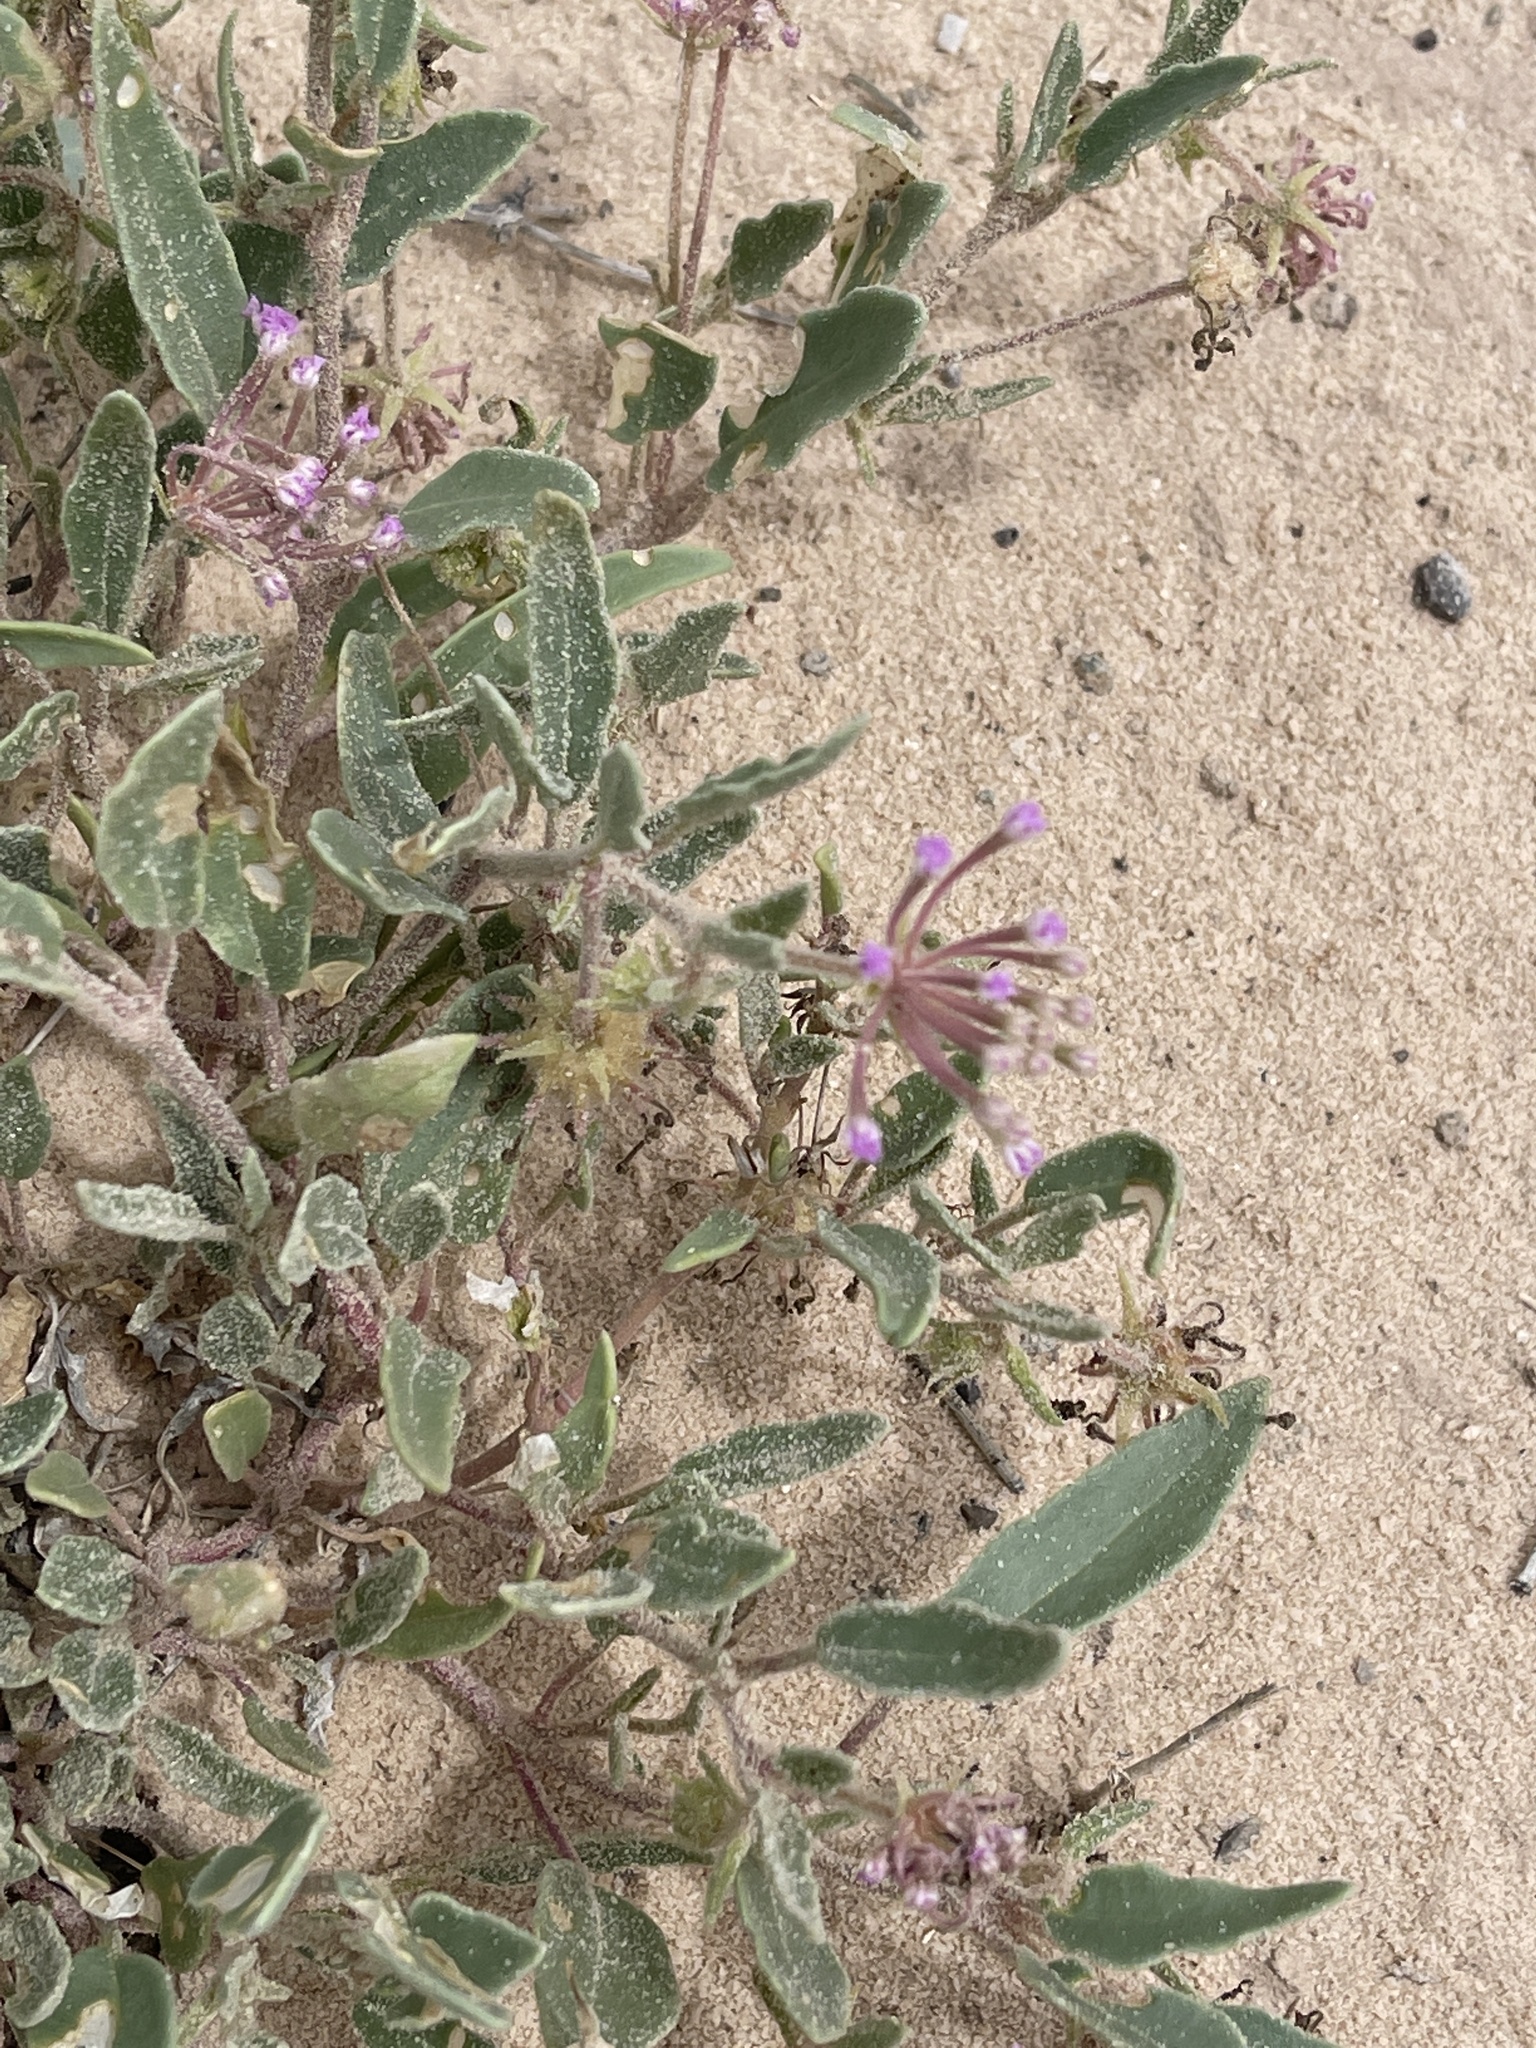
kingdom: Plantae
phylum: Tracheophyta
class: Magnoliopsida
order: Caryophyllales
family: Nyctaginaceae
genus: Abronia
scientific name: Abronia angustifolia
